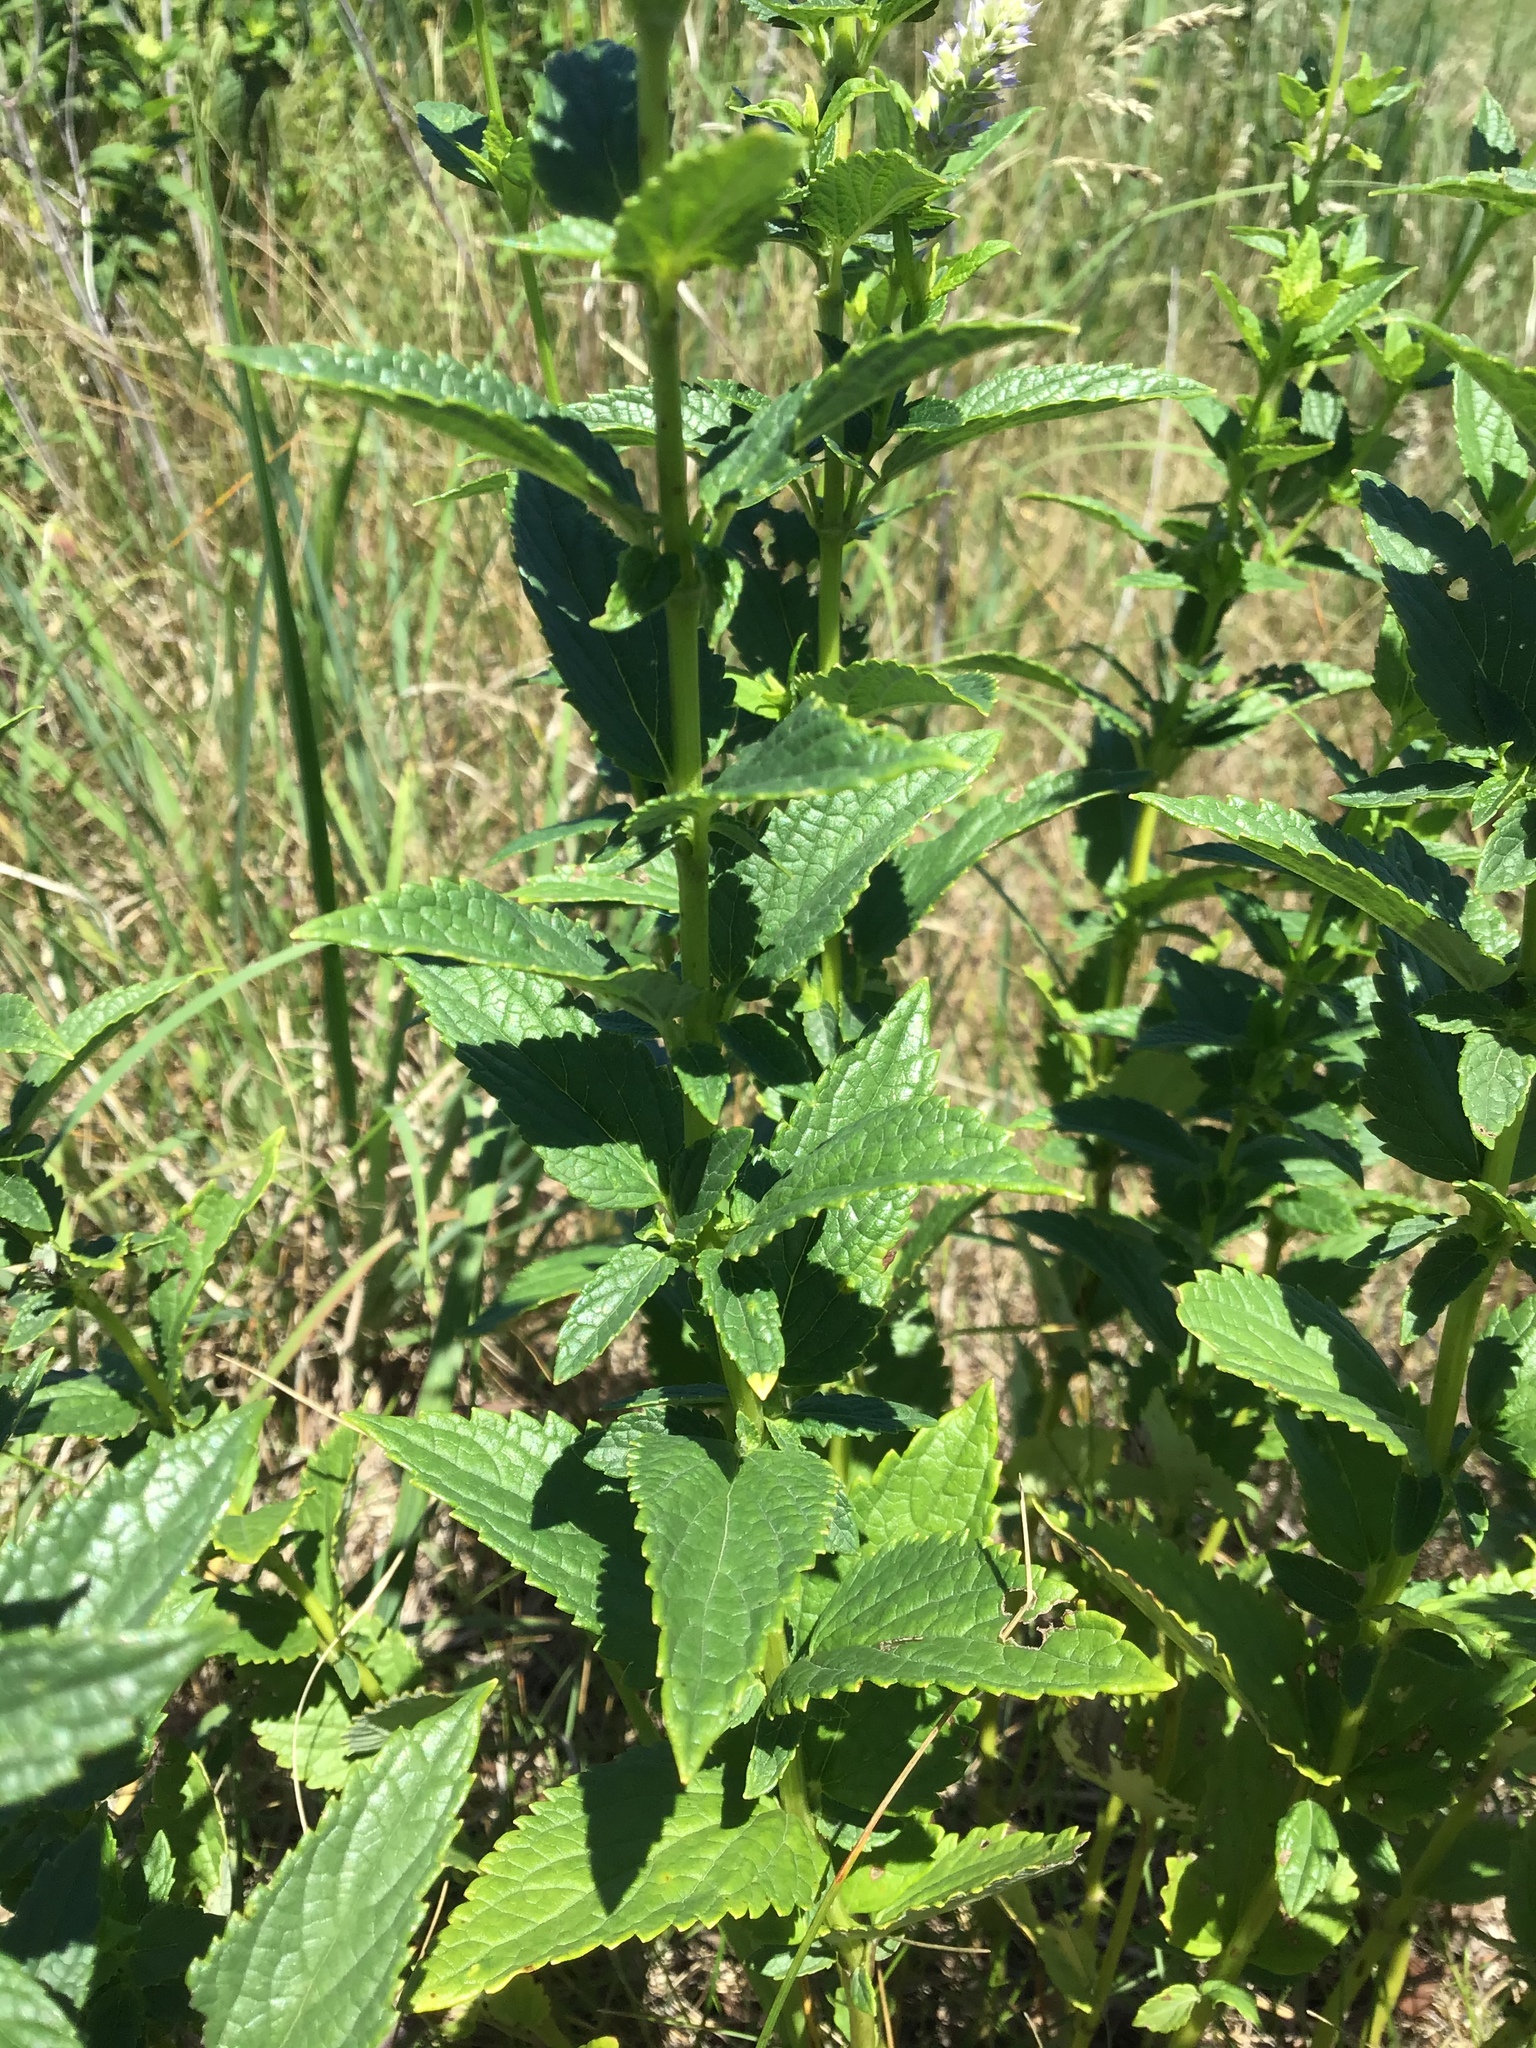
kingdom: Plantae
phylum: Tracheophyta
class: Magnoliopsida
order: Lamiales
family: Lamiaceae
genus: Agastache
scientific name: Agastache foeniculum
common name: Anise hyssop
